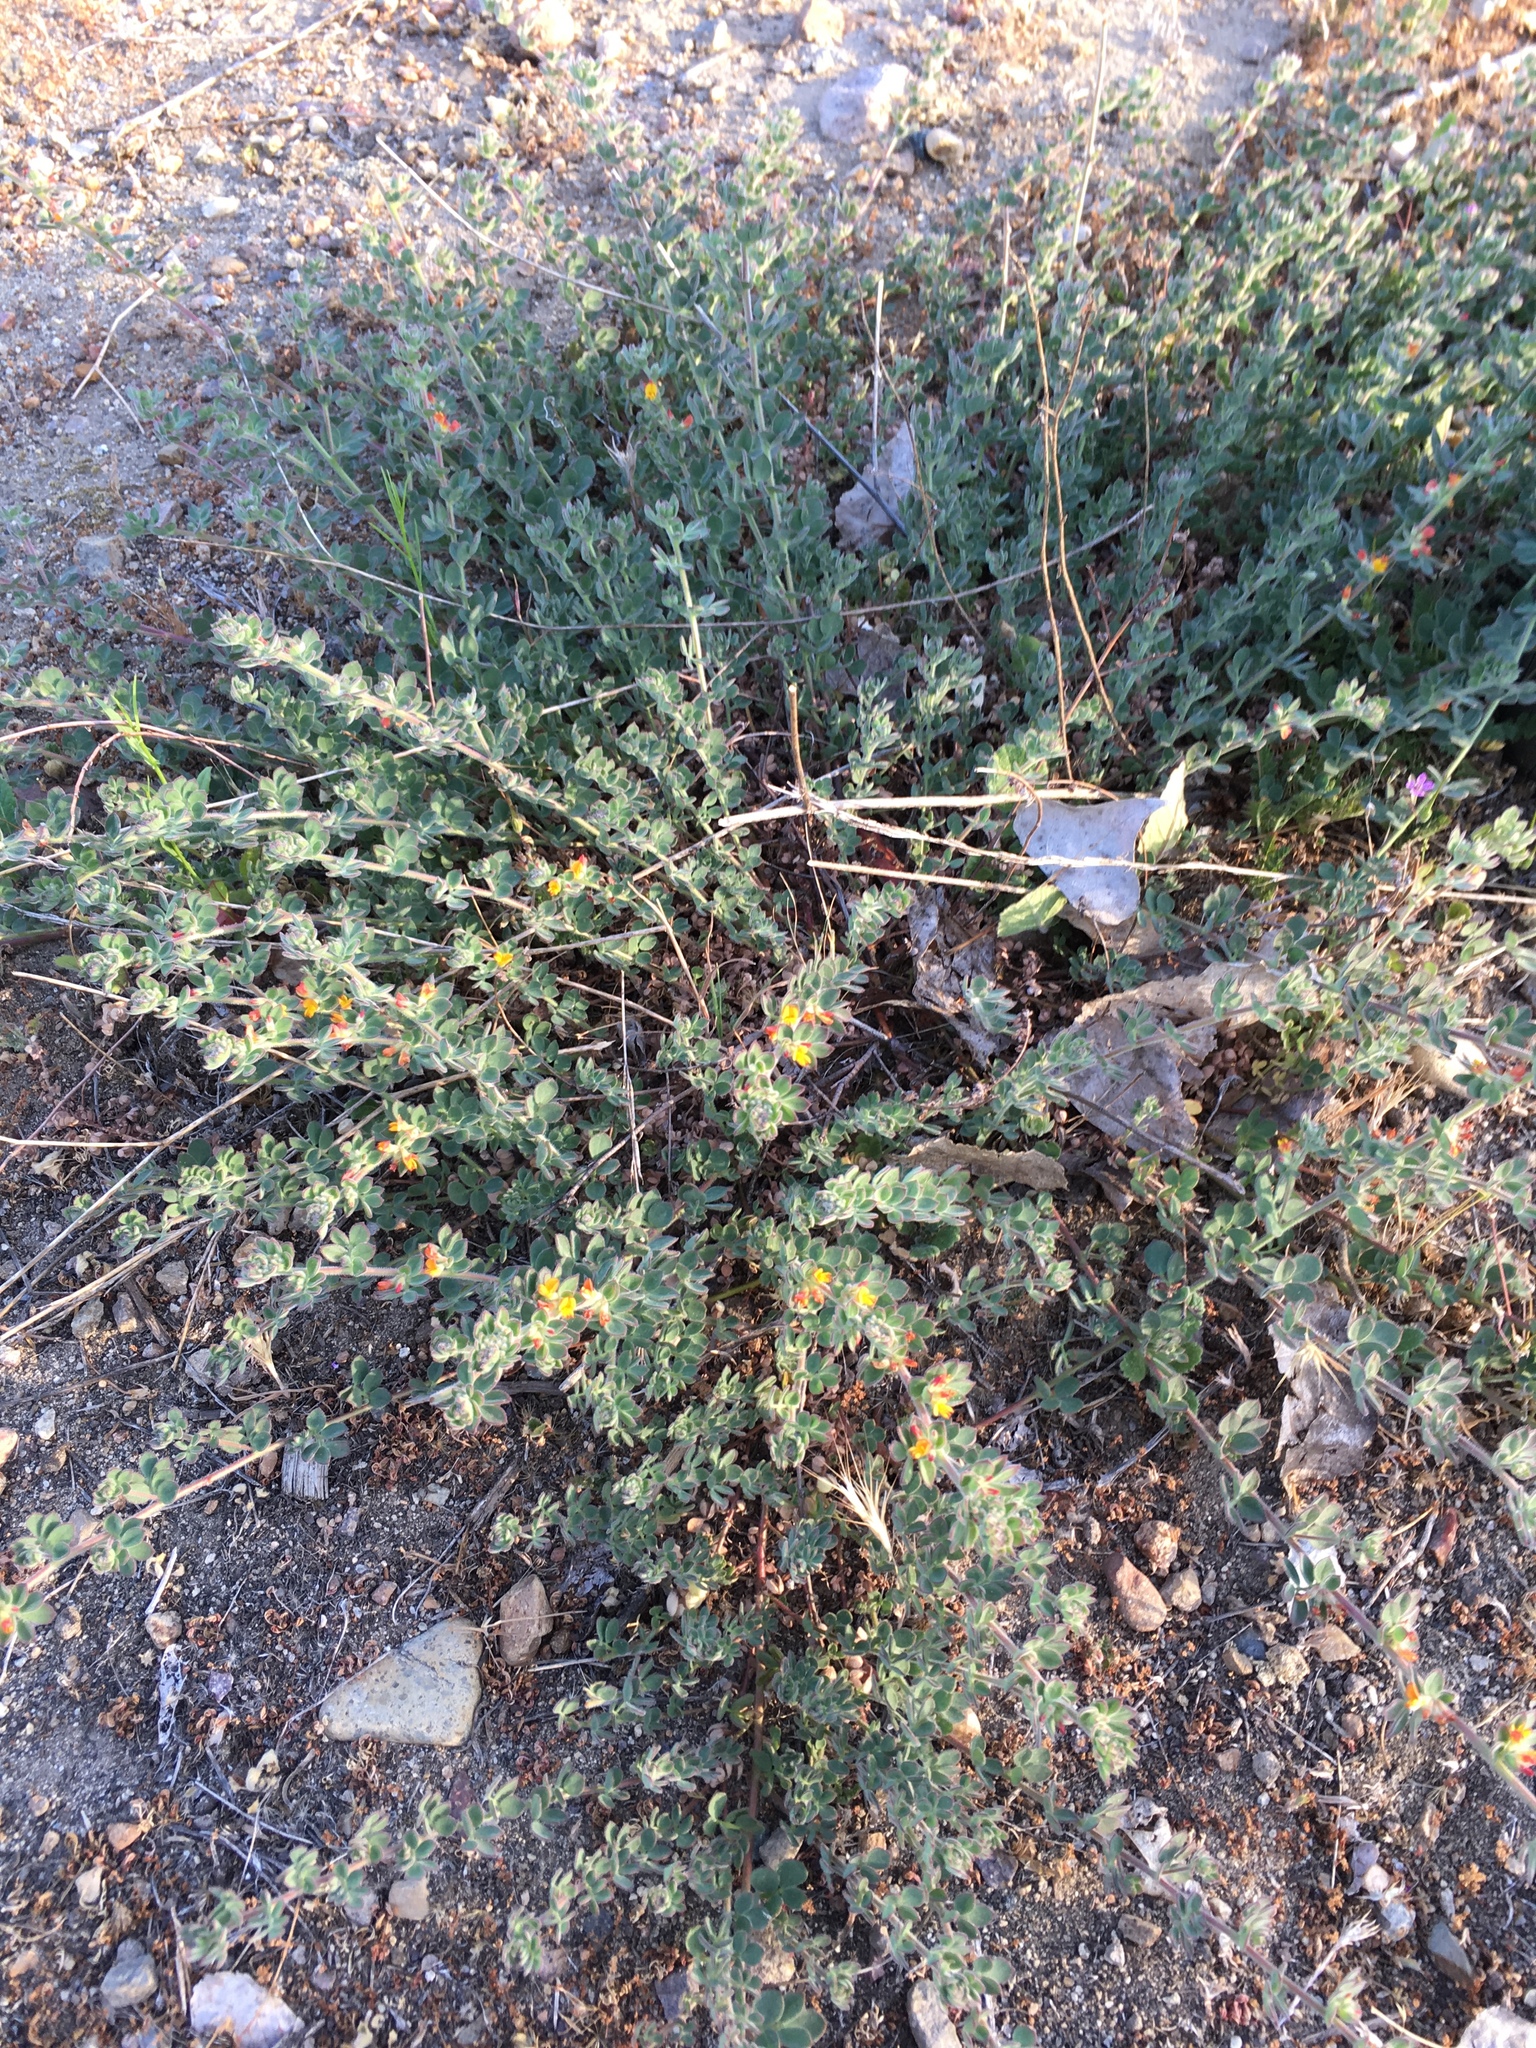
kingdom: Plantae
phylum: Tracheophyta
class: Magnoliopsida
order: Fabales
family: Fabaceae
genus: Acmispon
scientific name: Acmispon tomentosus
